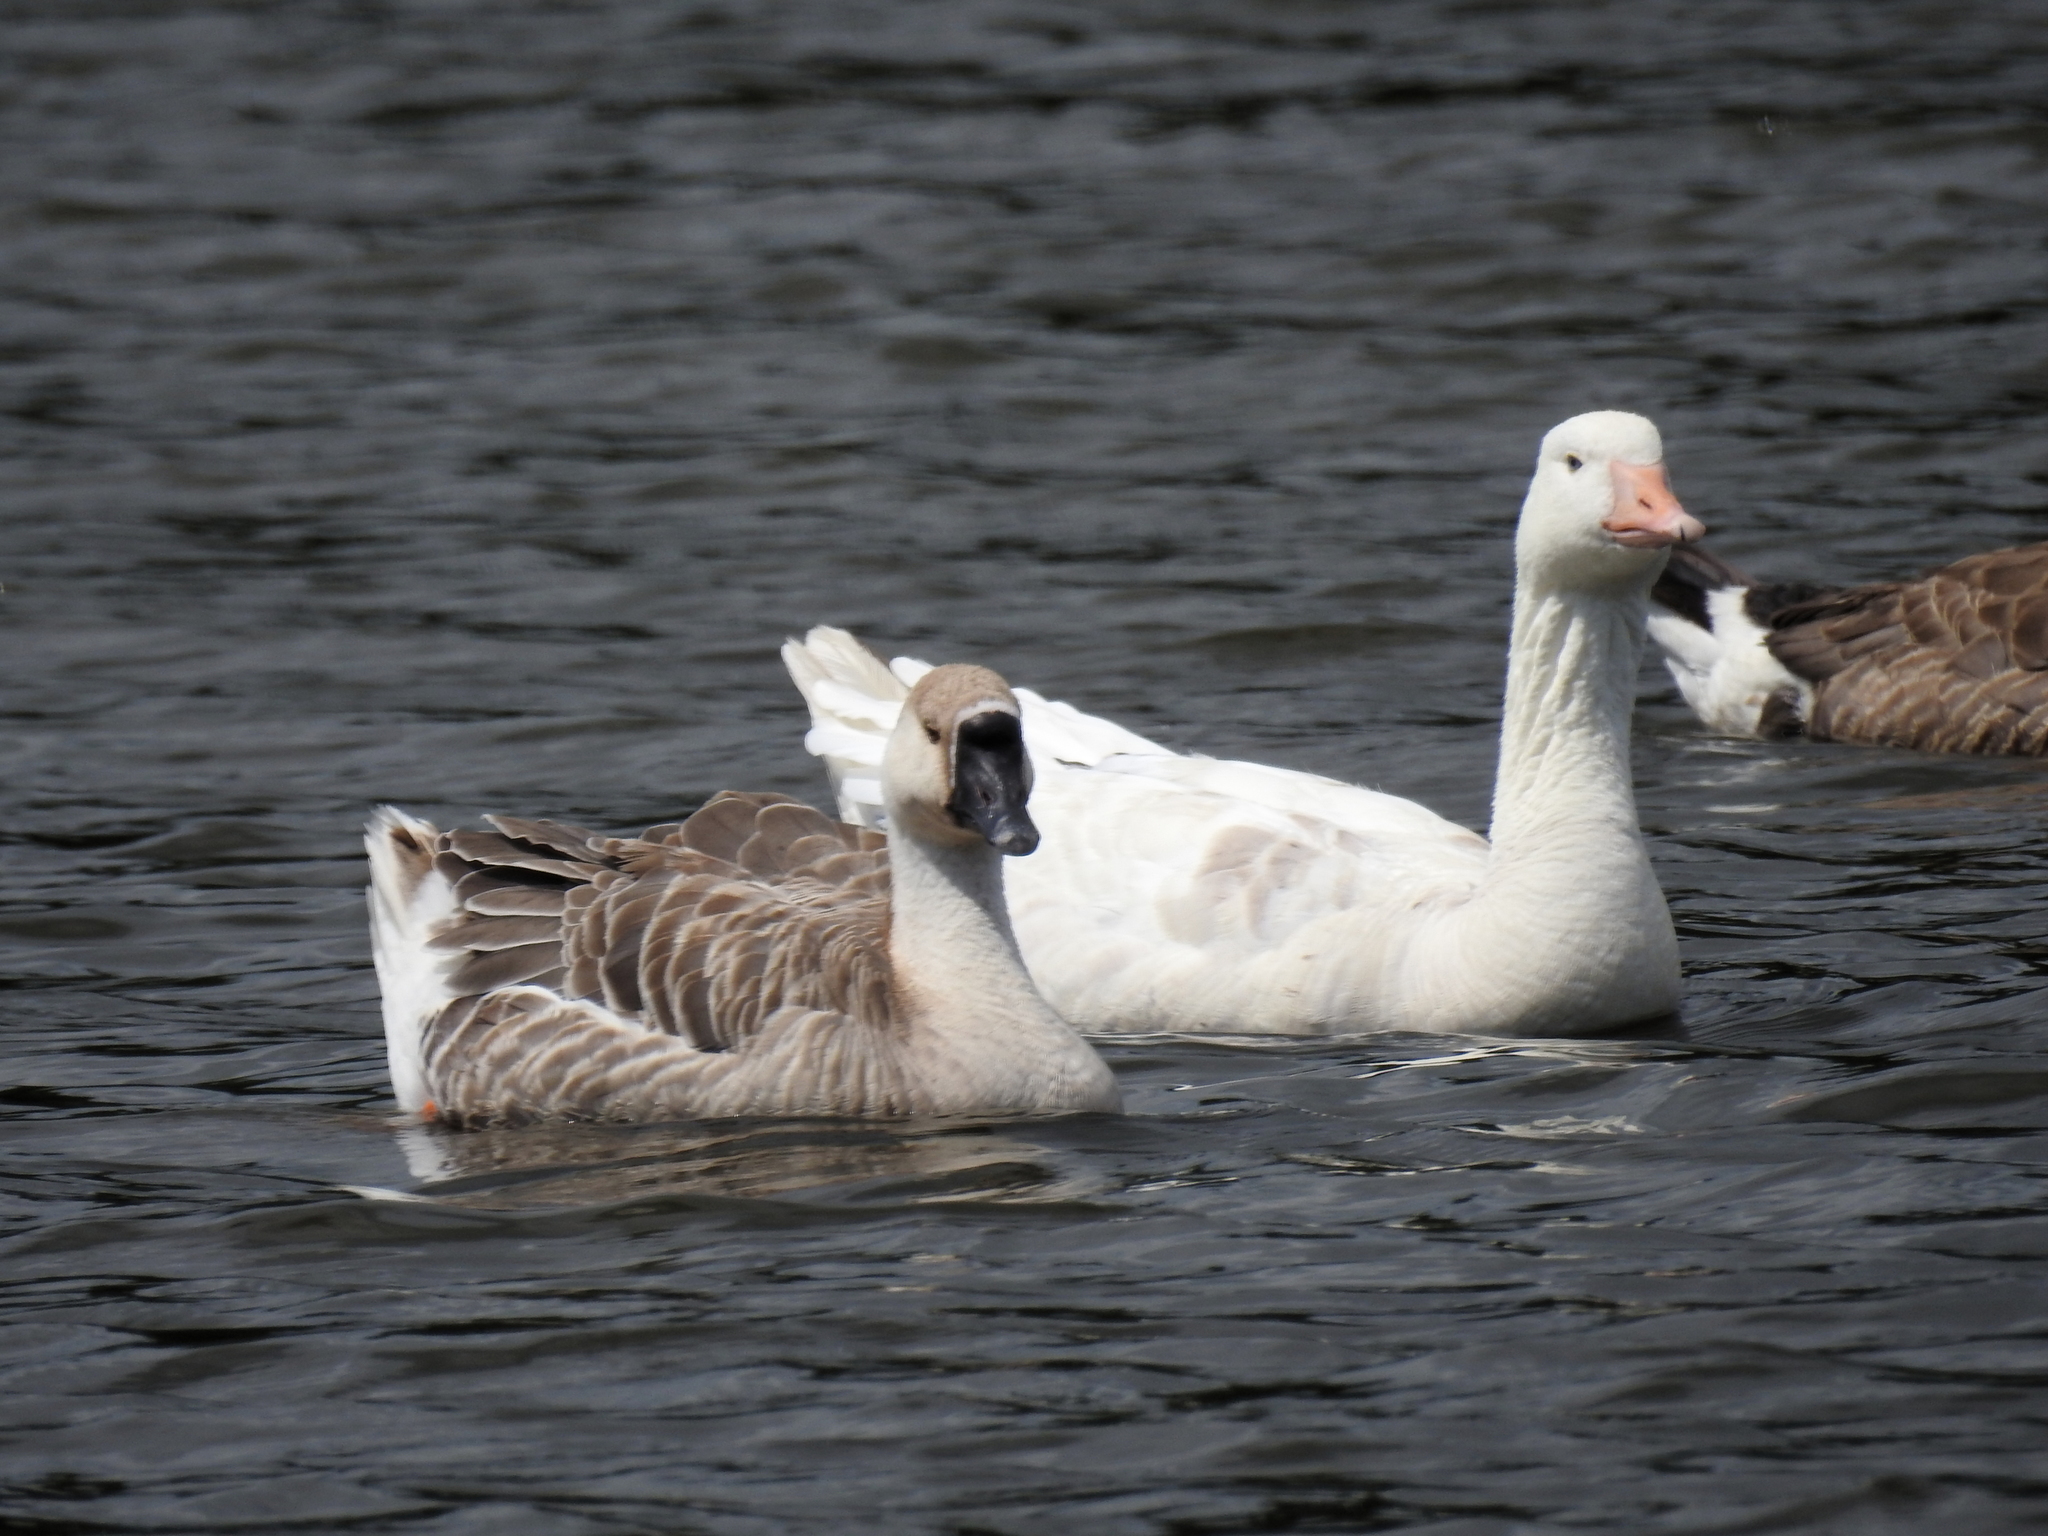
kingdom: Animalia
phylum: Chordata
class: Aves
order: Anseriformes
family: Anatidae
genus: Anser
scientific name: Anser cygnoides
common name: Swan goose
